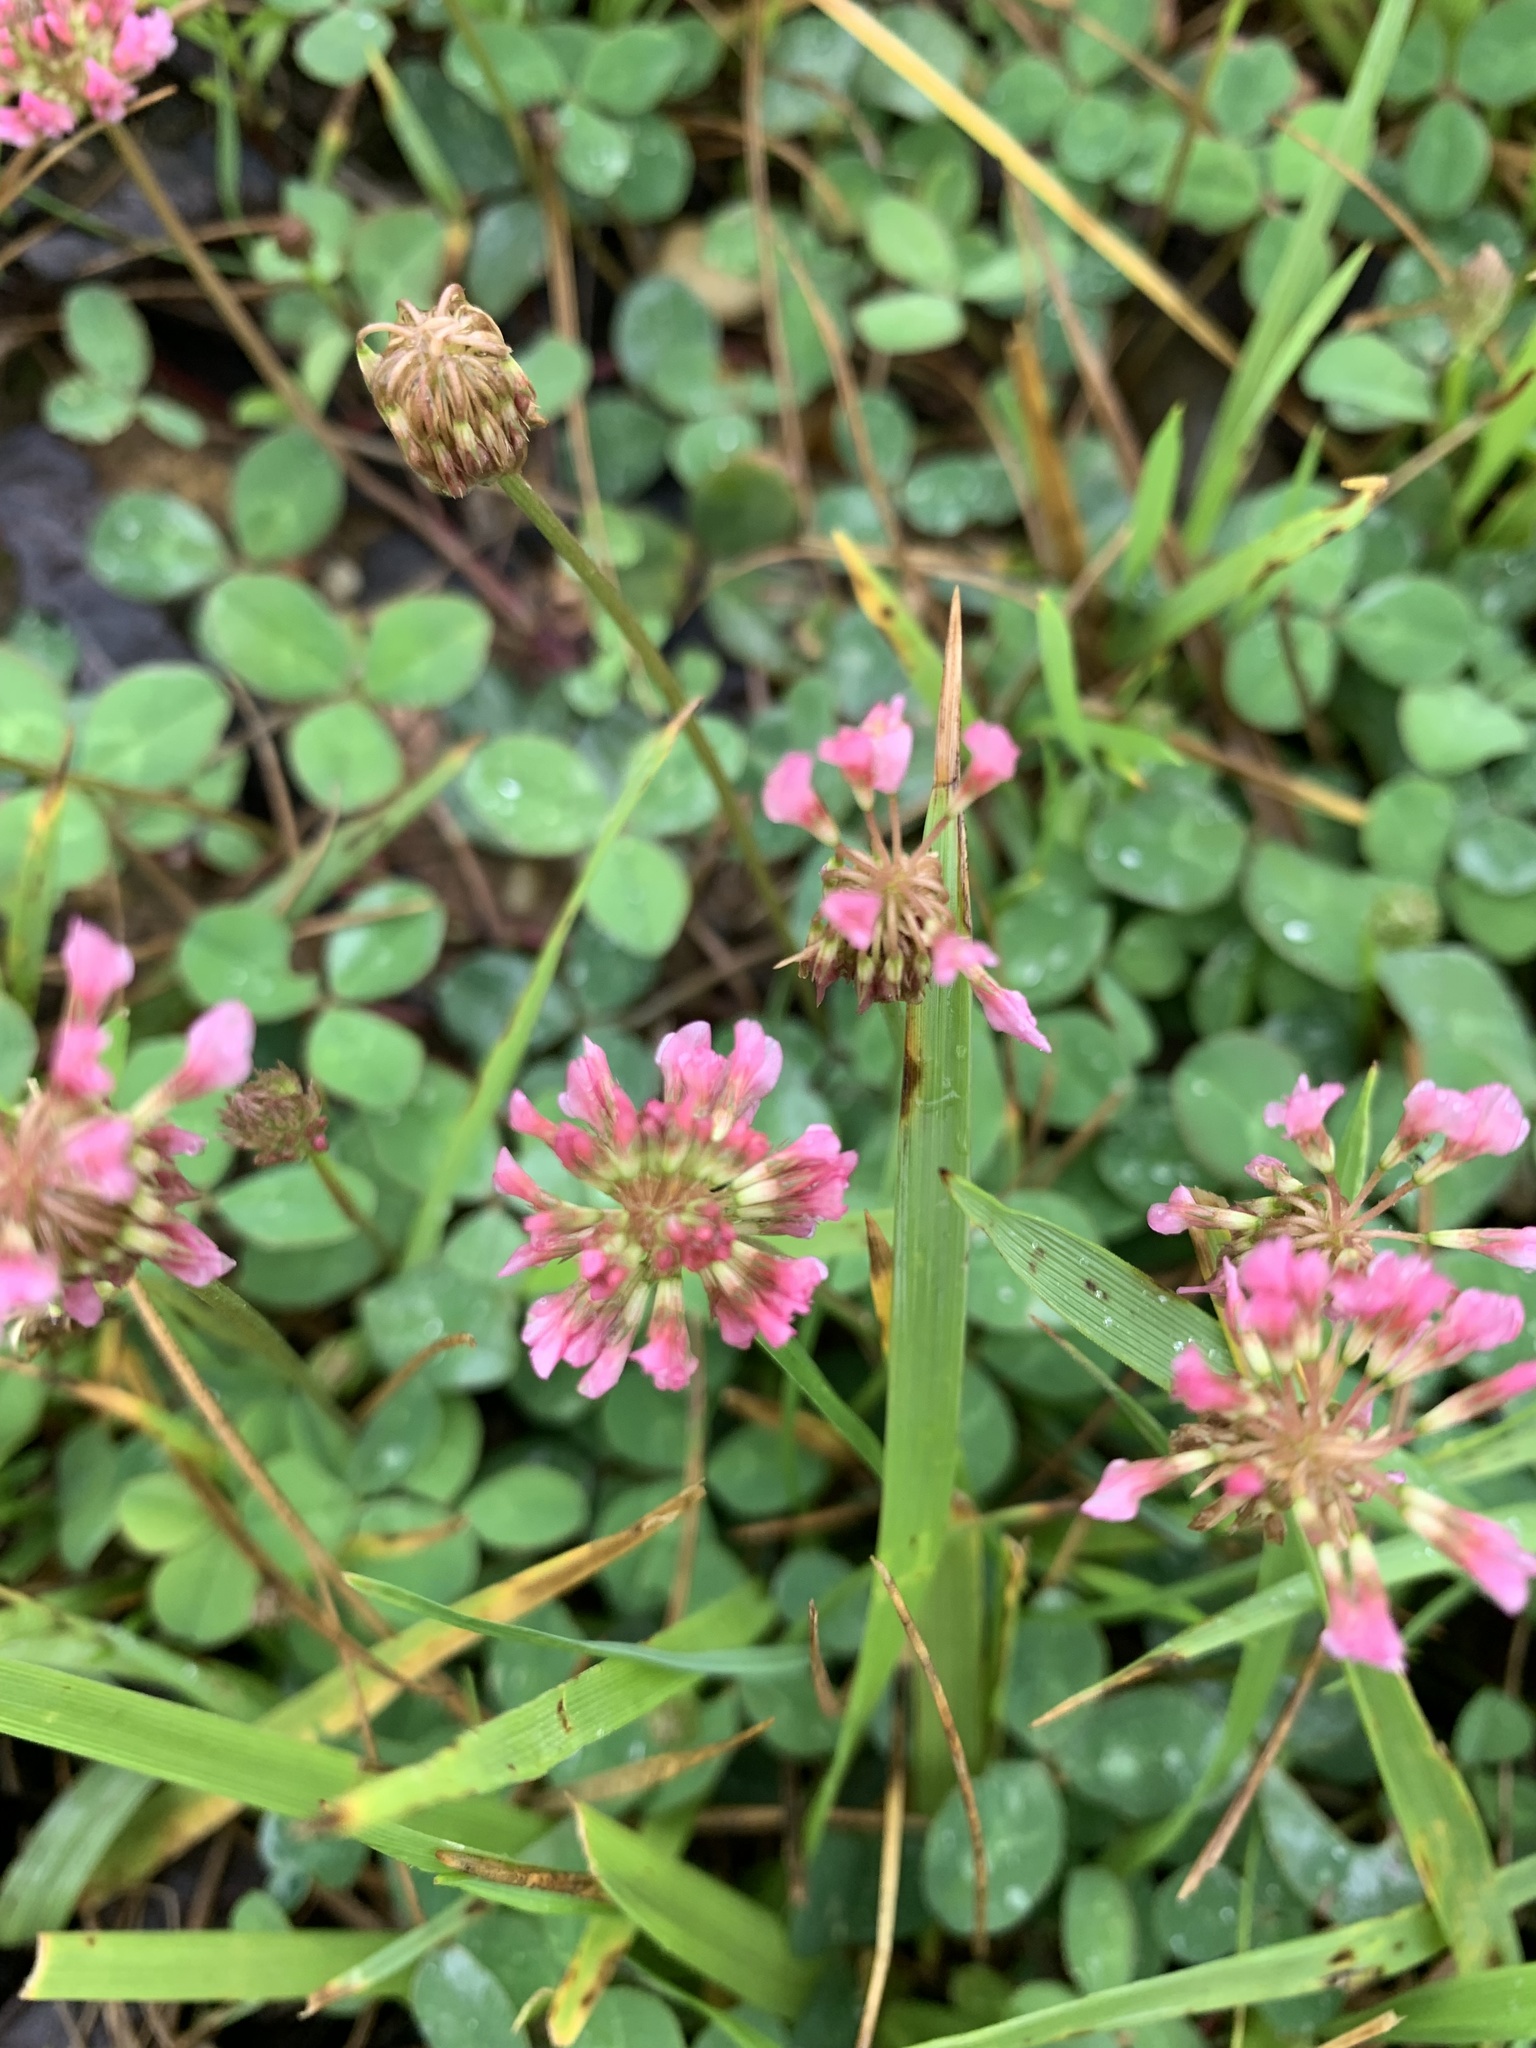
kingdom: Plantae
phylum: Tracheophyta
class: Magnoliopsida
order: Fabales
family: Fabaceae
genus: Trifolium
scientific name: Trifolium repens
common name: White clover
